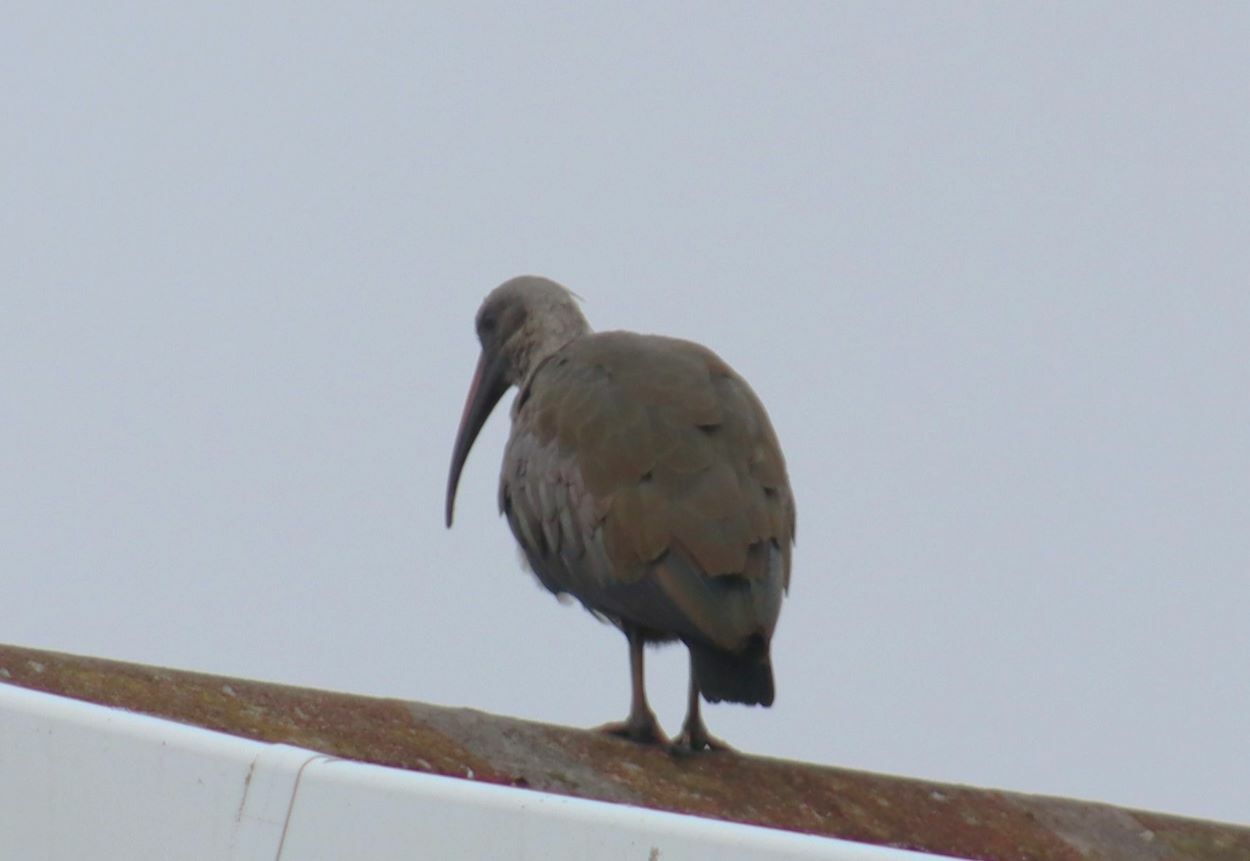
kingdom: Animalia
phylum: Chordata
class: Aves
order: Pelecaniformes
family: Threskiornithidae
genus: Bostrychia
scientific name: Bostrychia hagedash
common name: Hadada ibis
